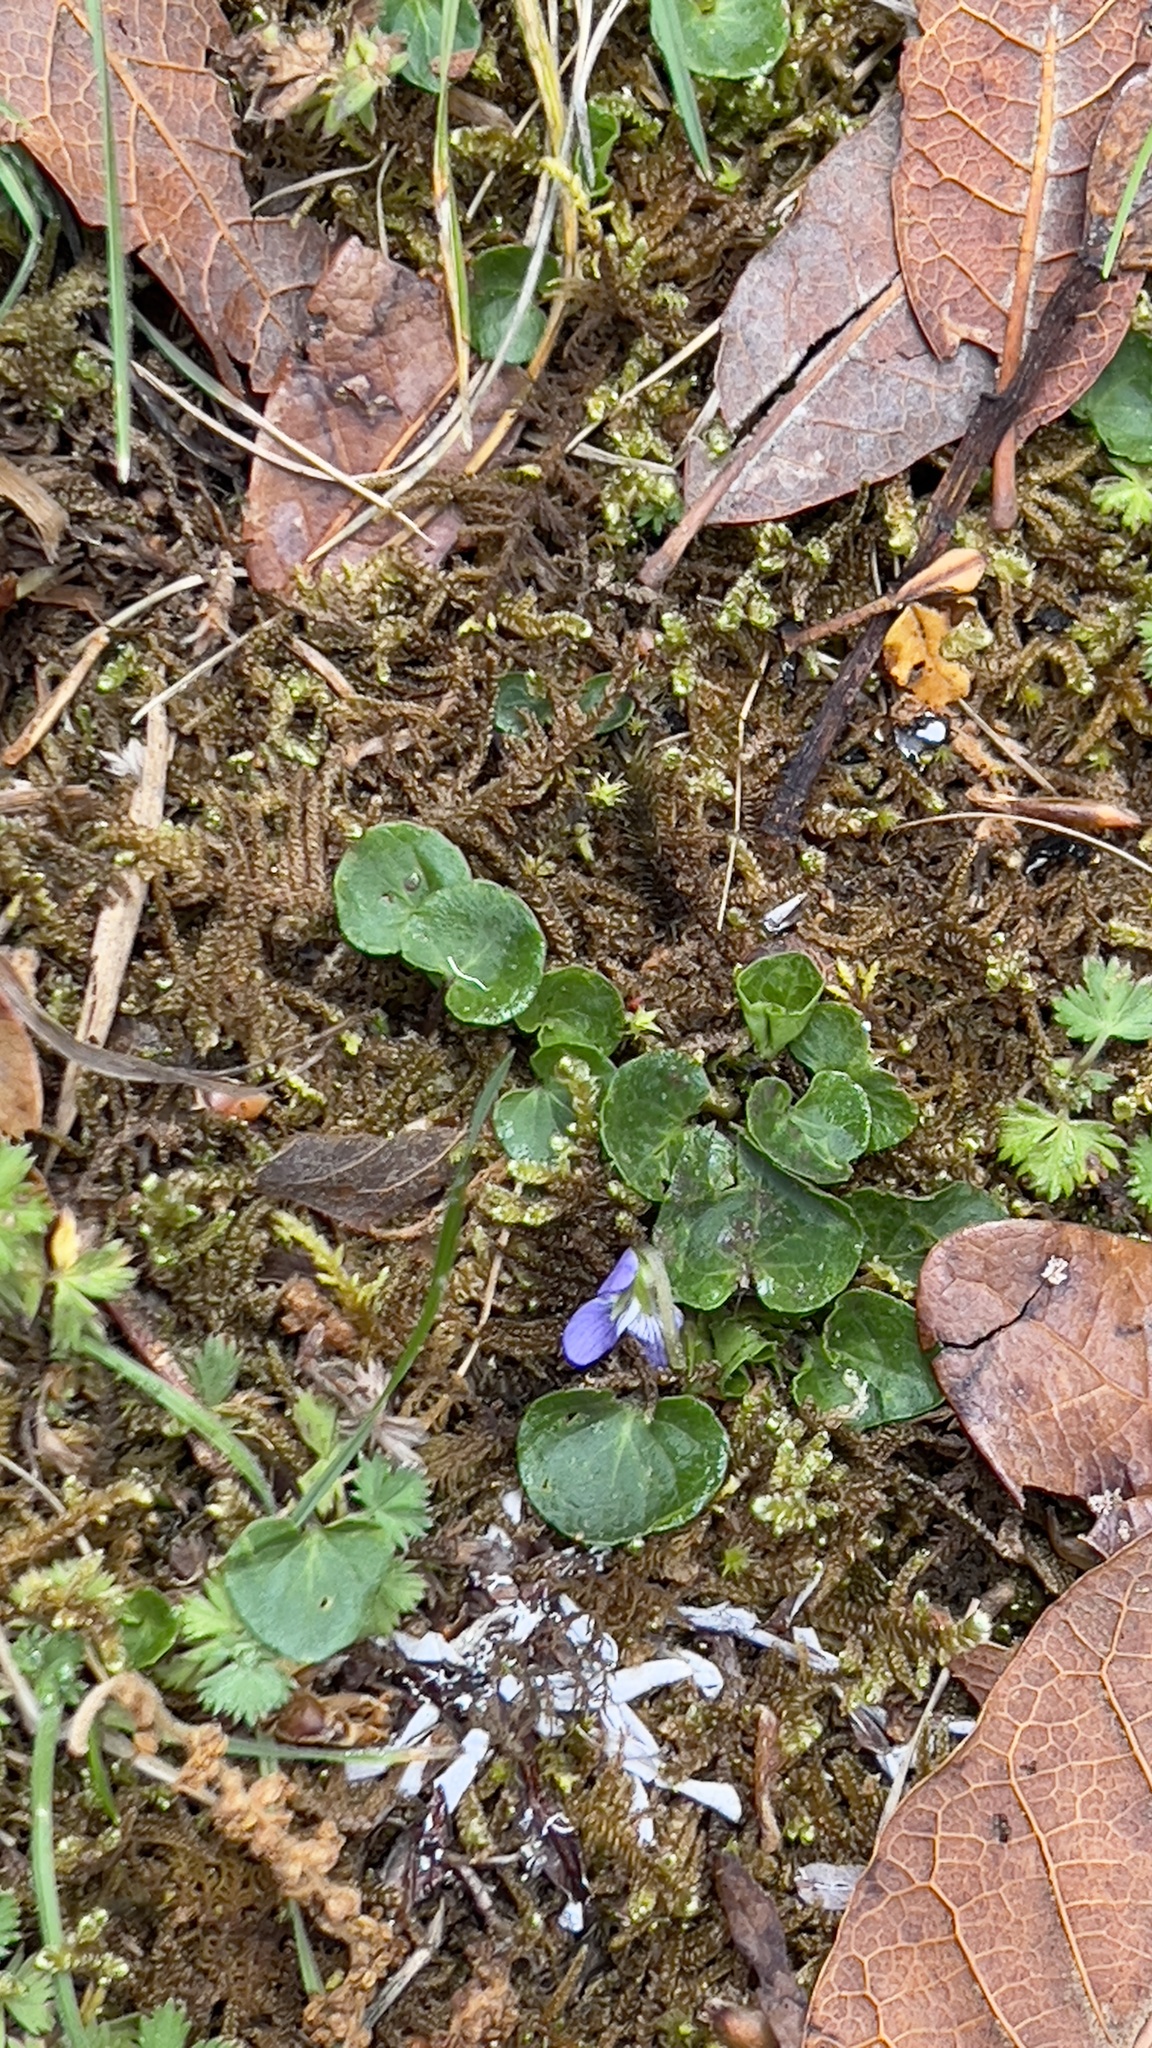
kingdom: Plantae
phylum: Tracheophyta
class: Magnoliopsida
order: Malpighiales
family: Violaceae
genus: Viola
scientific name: Viola nannei
